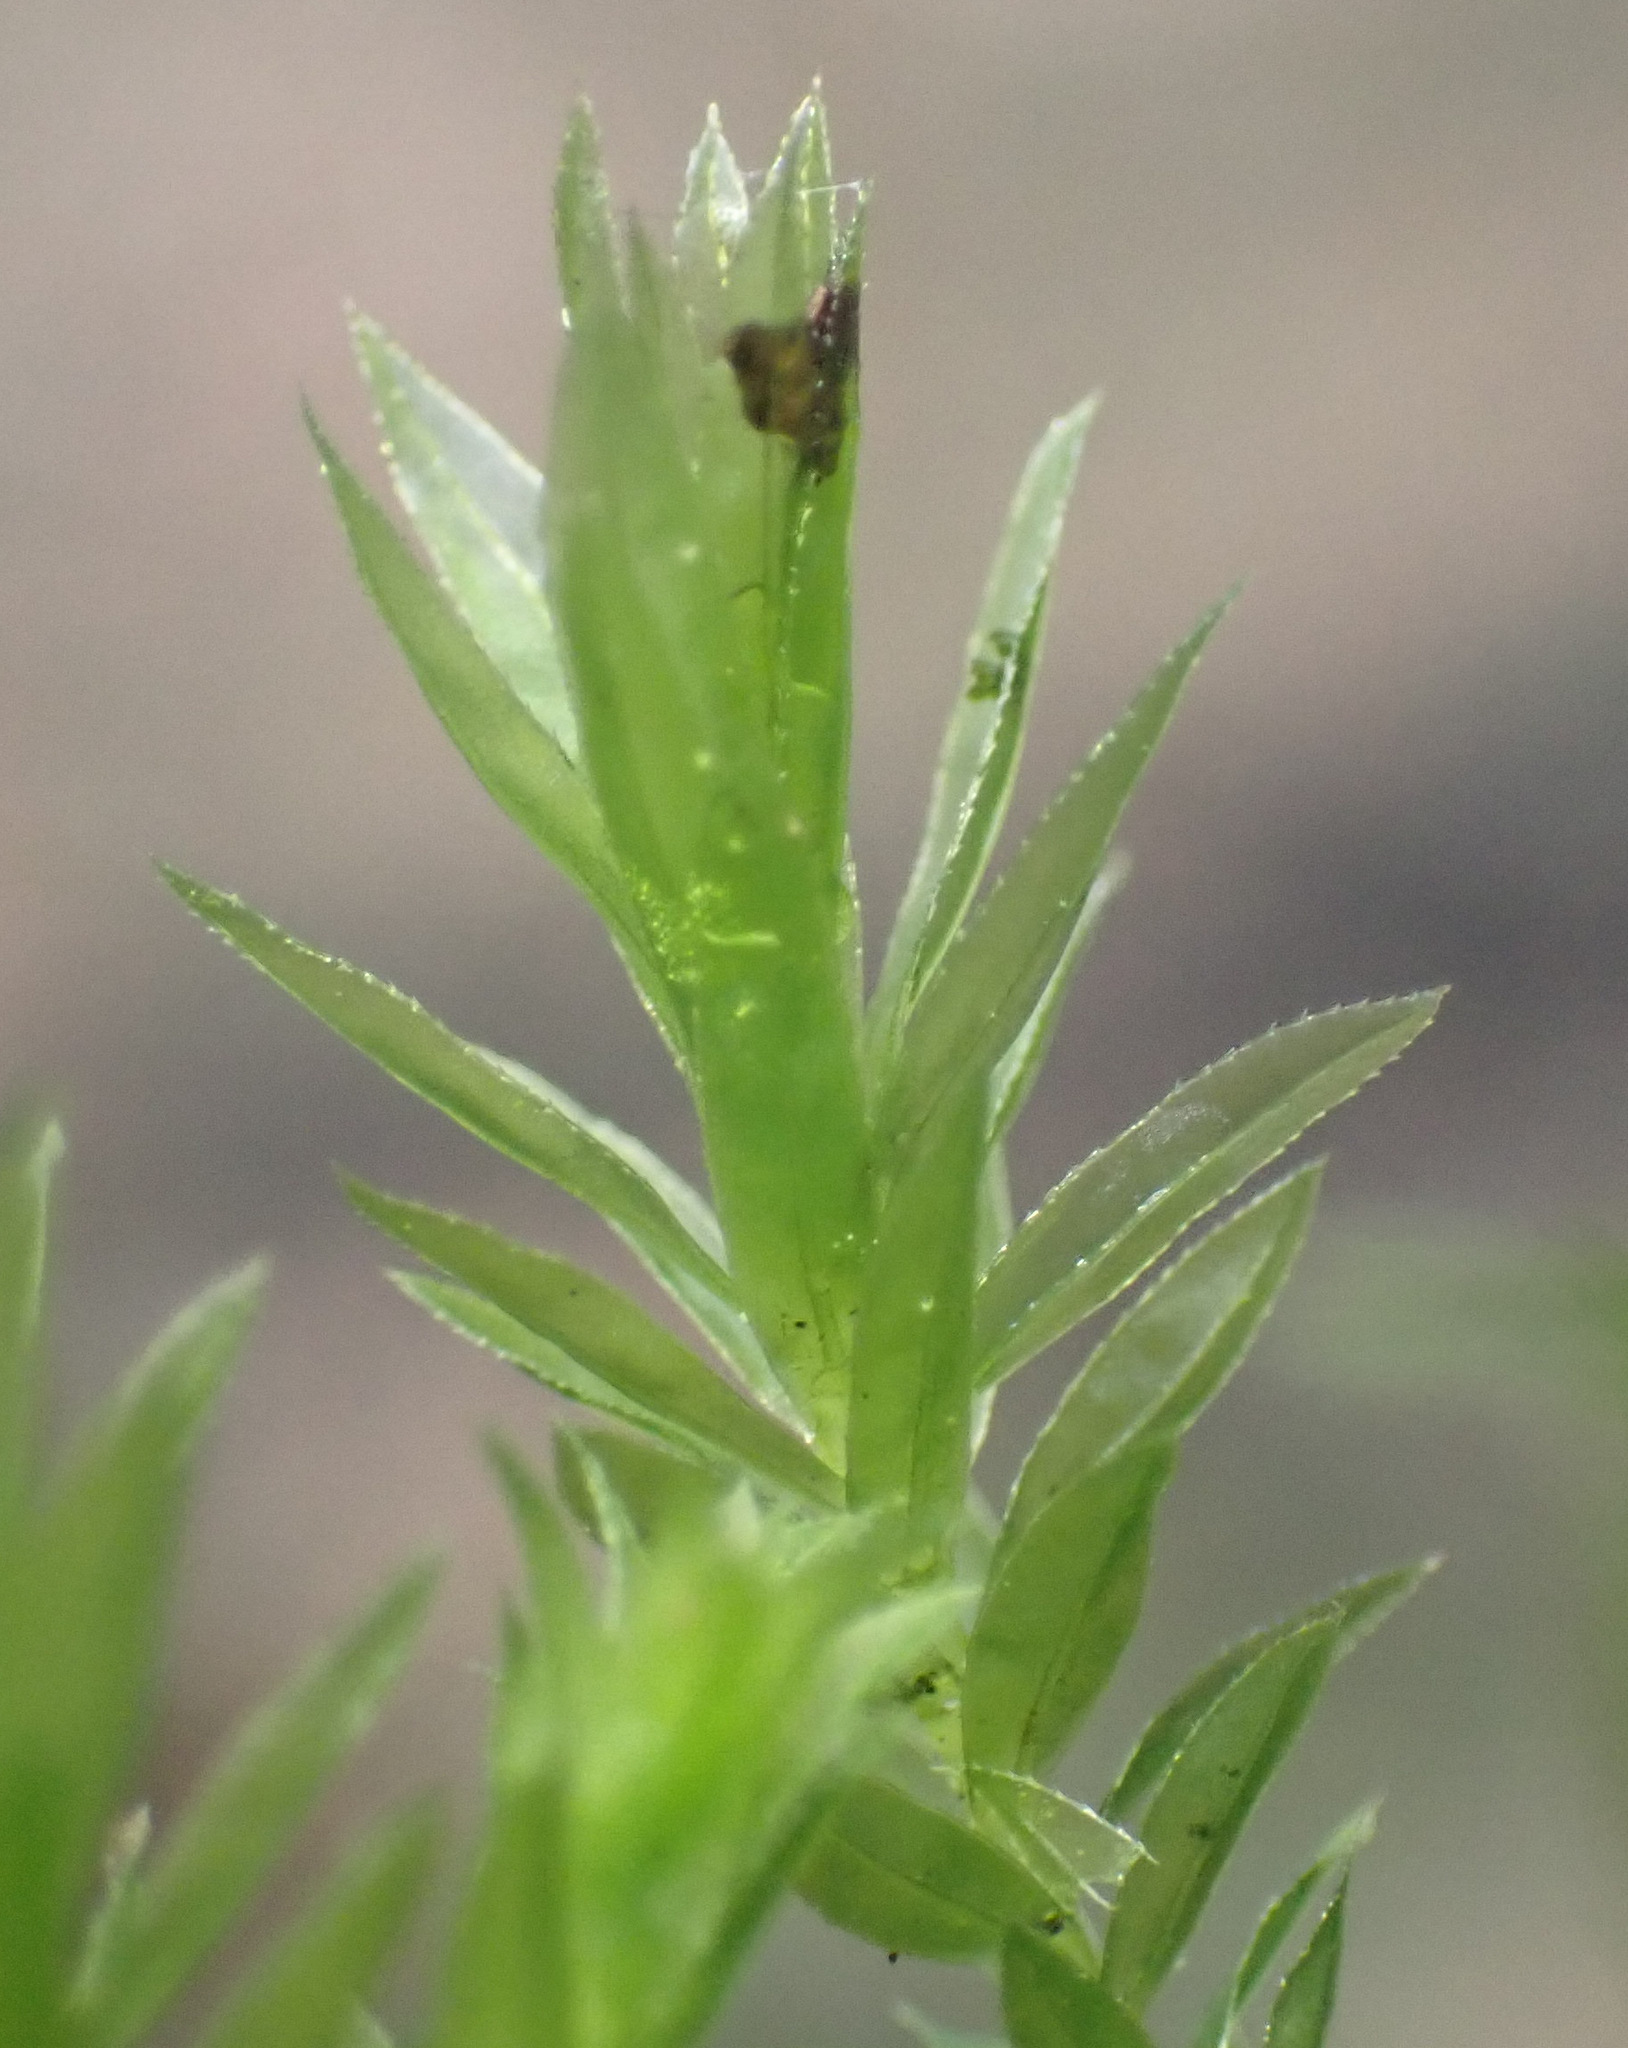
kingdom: Plantae
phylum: Bryophyta
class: Bryopsida
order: Bryales
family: Mniaceae
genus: Mnium
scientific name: Mnium hornum
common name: Swan's-neck leafy moss
